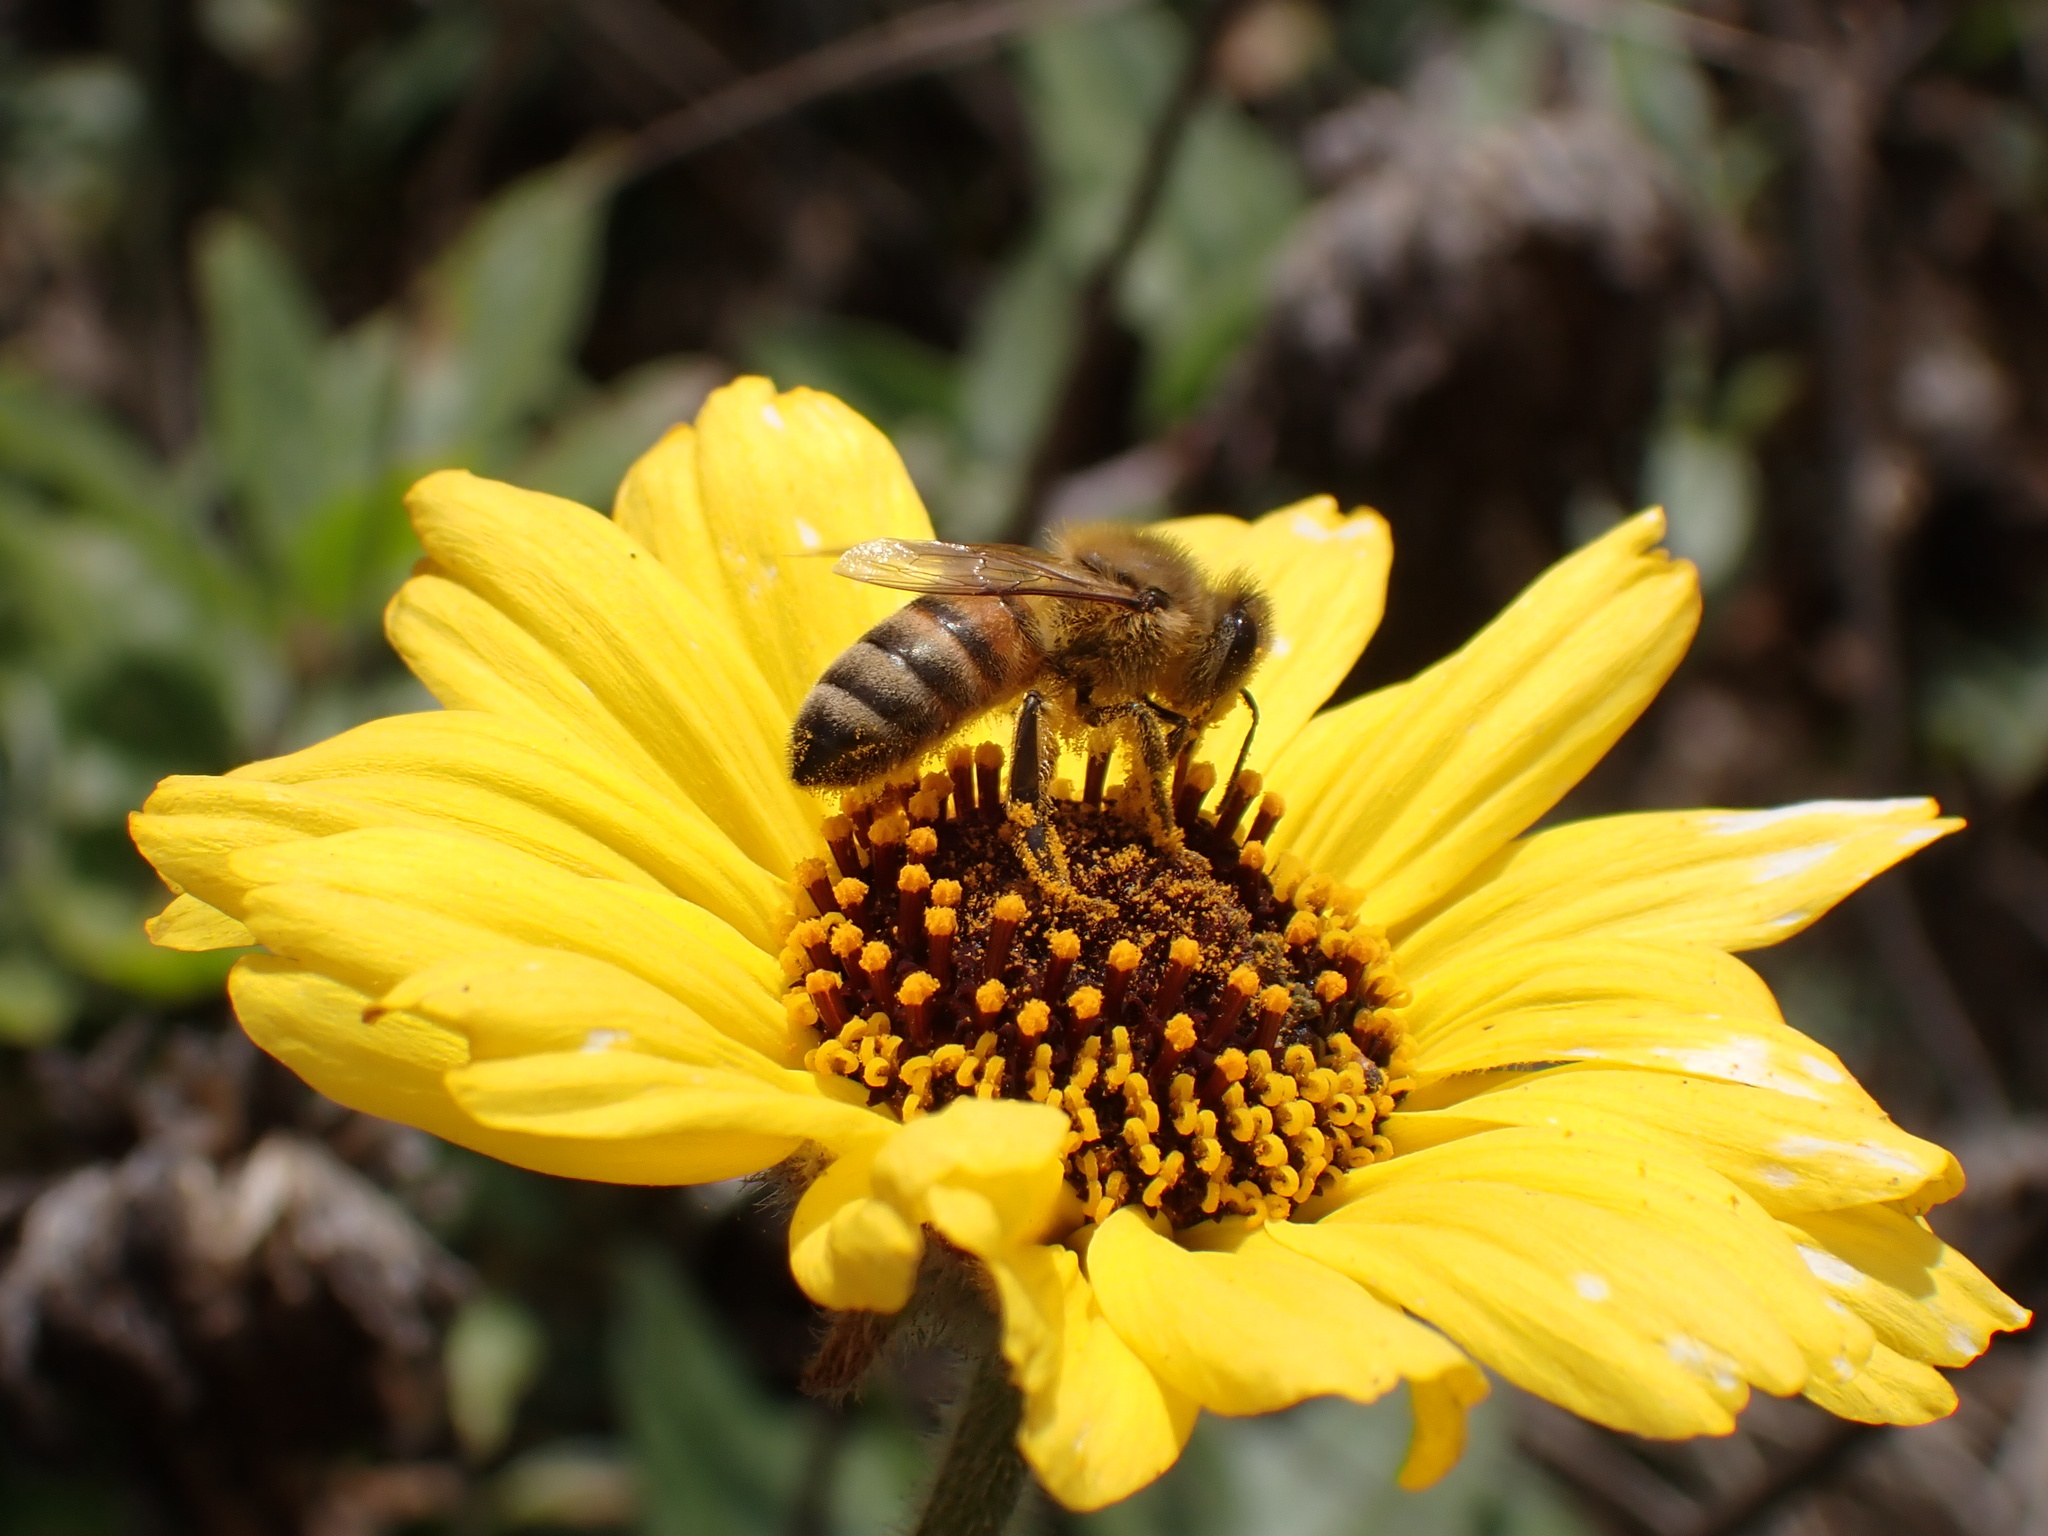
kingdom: Animalia
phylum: Arthropoda
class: Insecta
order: Hymenoptera
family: Apidae
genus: Apis
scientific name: Apis mellifera
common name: Honey bee
